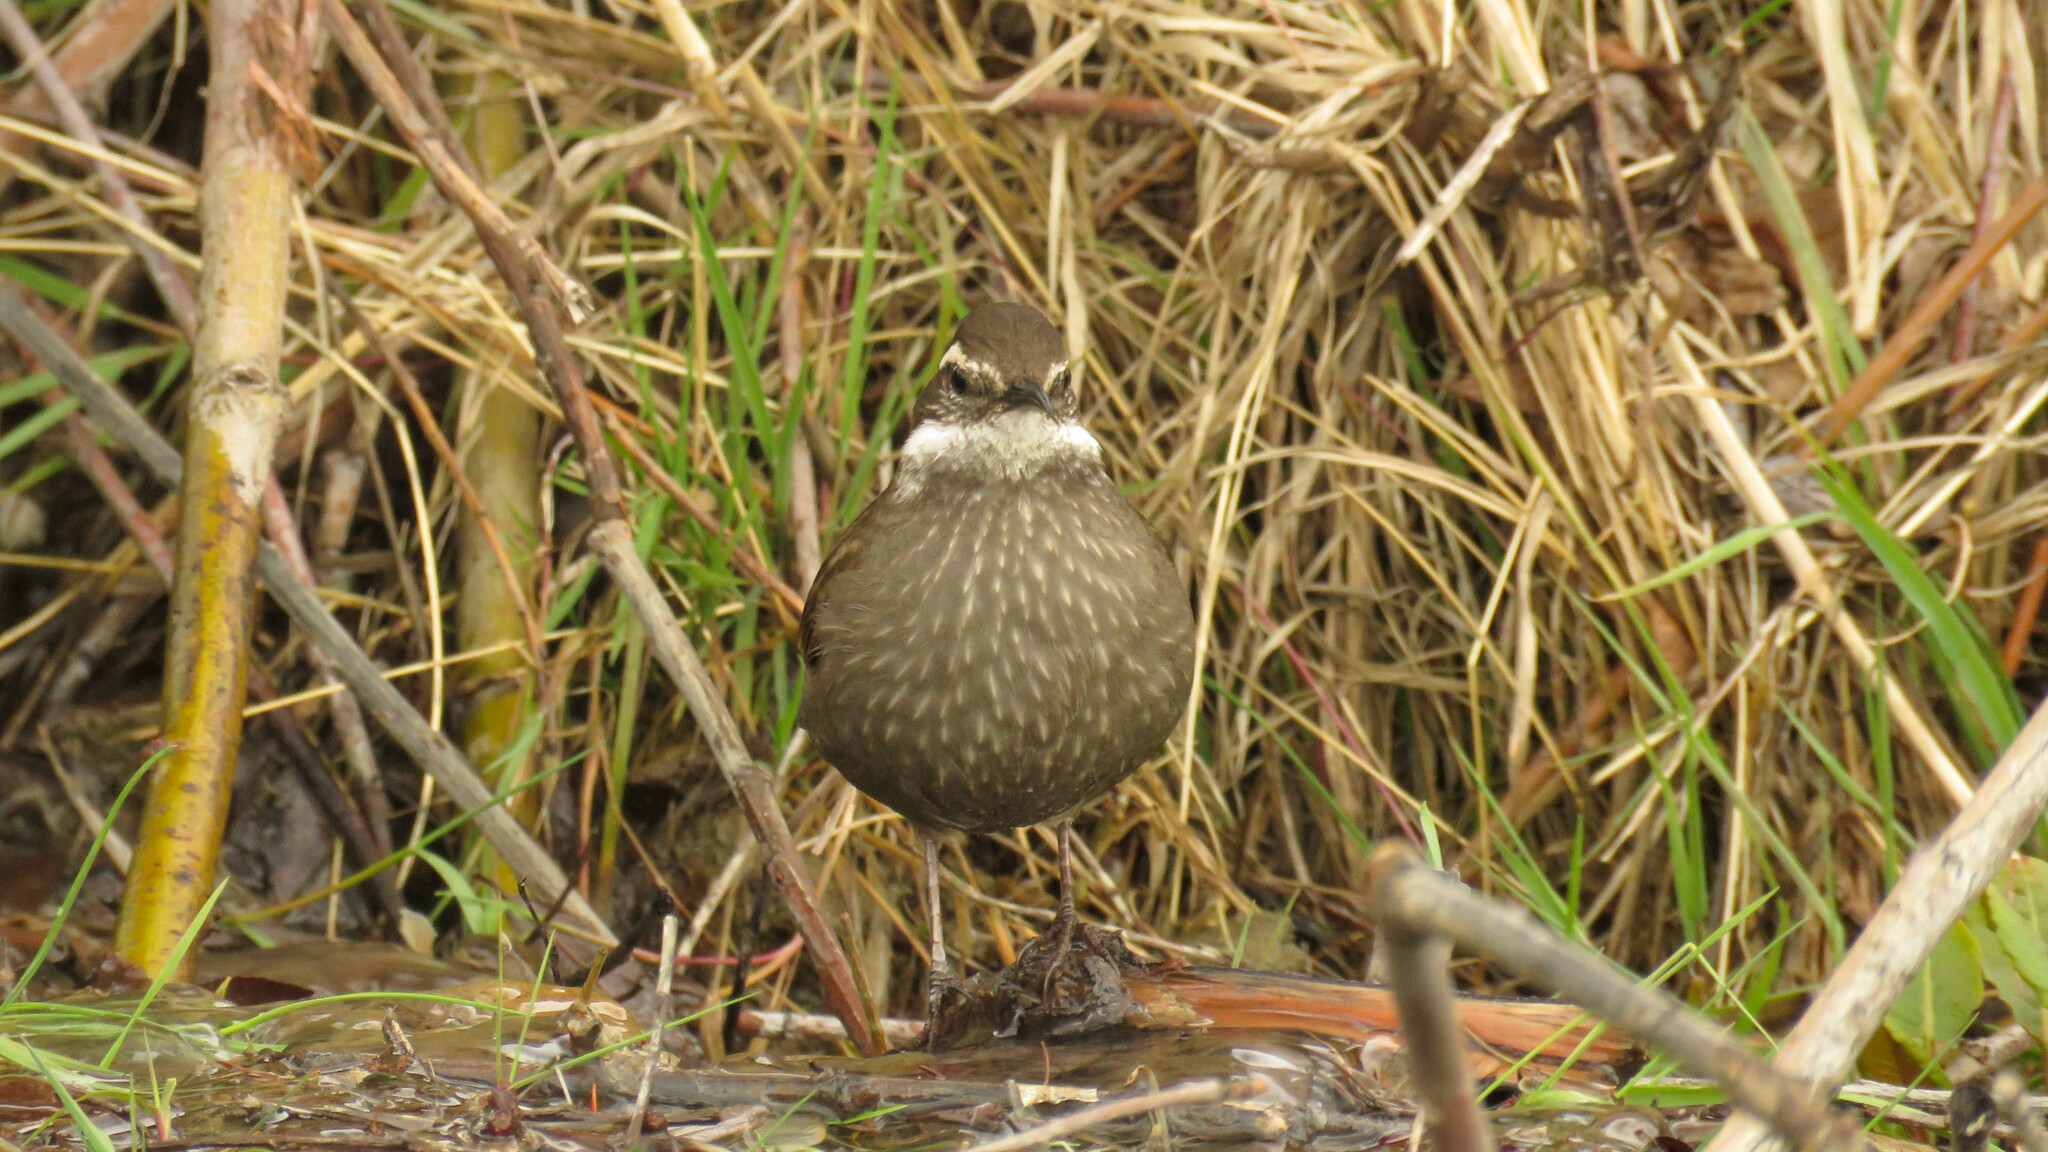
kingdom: Animalia
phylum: Chordata
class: Aves
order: Passeriformes
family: Furnariidae
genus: Cinclodes
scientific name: Cinclodes patagonicus
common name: Dark-bellied cinclodes
